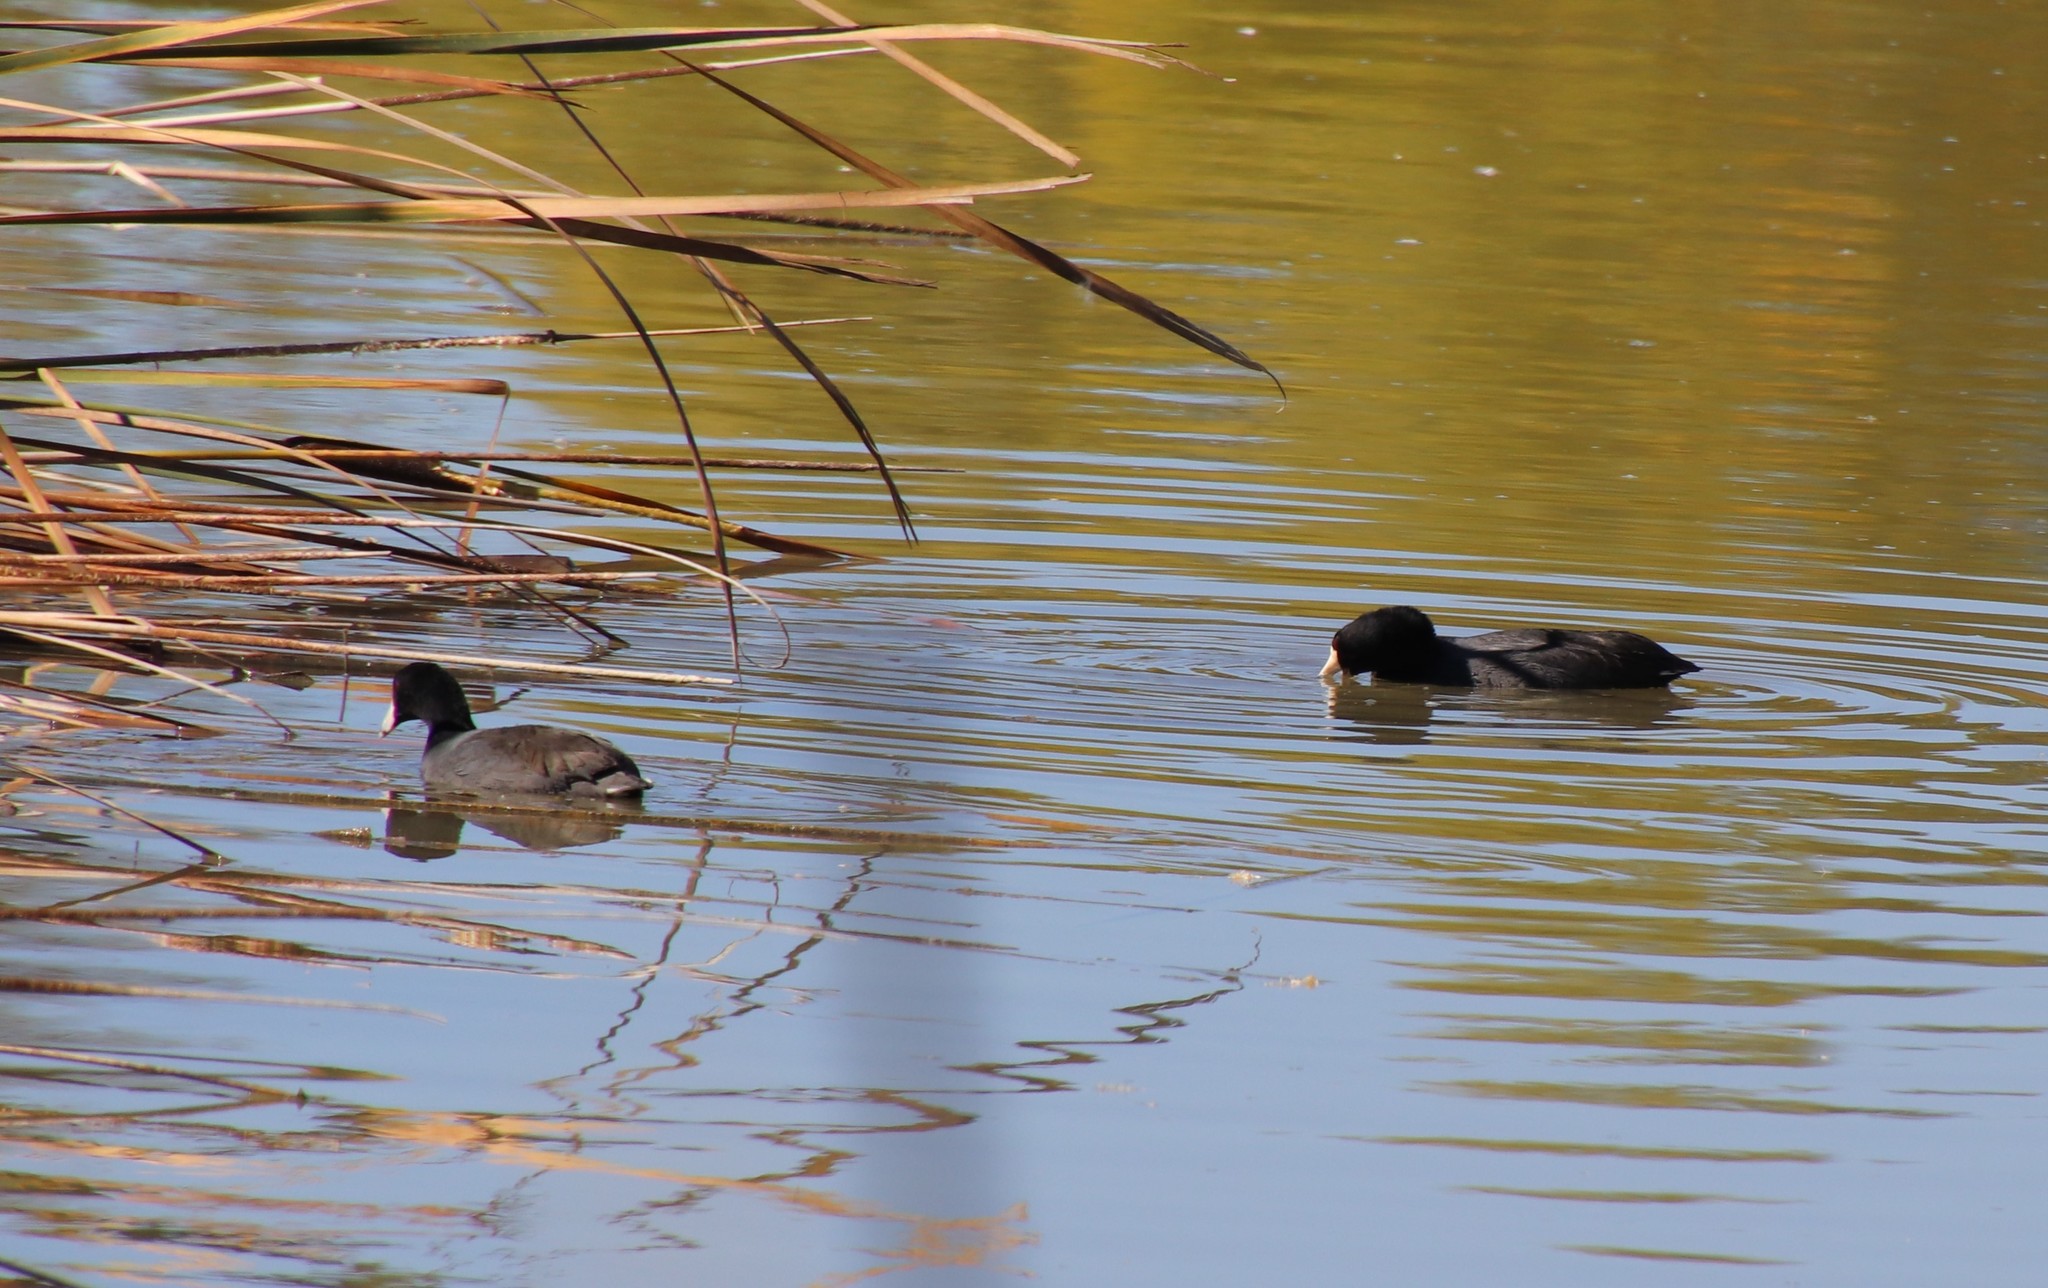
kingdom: Animalia
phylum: Chordata
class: Aves
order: Gruiformes
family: Rallidae
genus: Fulica
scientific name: Fulica americana
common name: American coot
